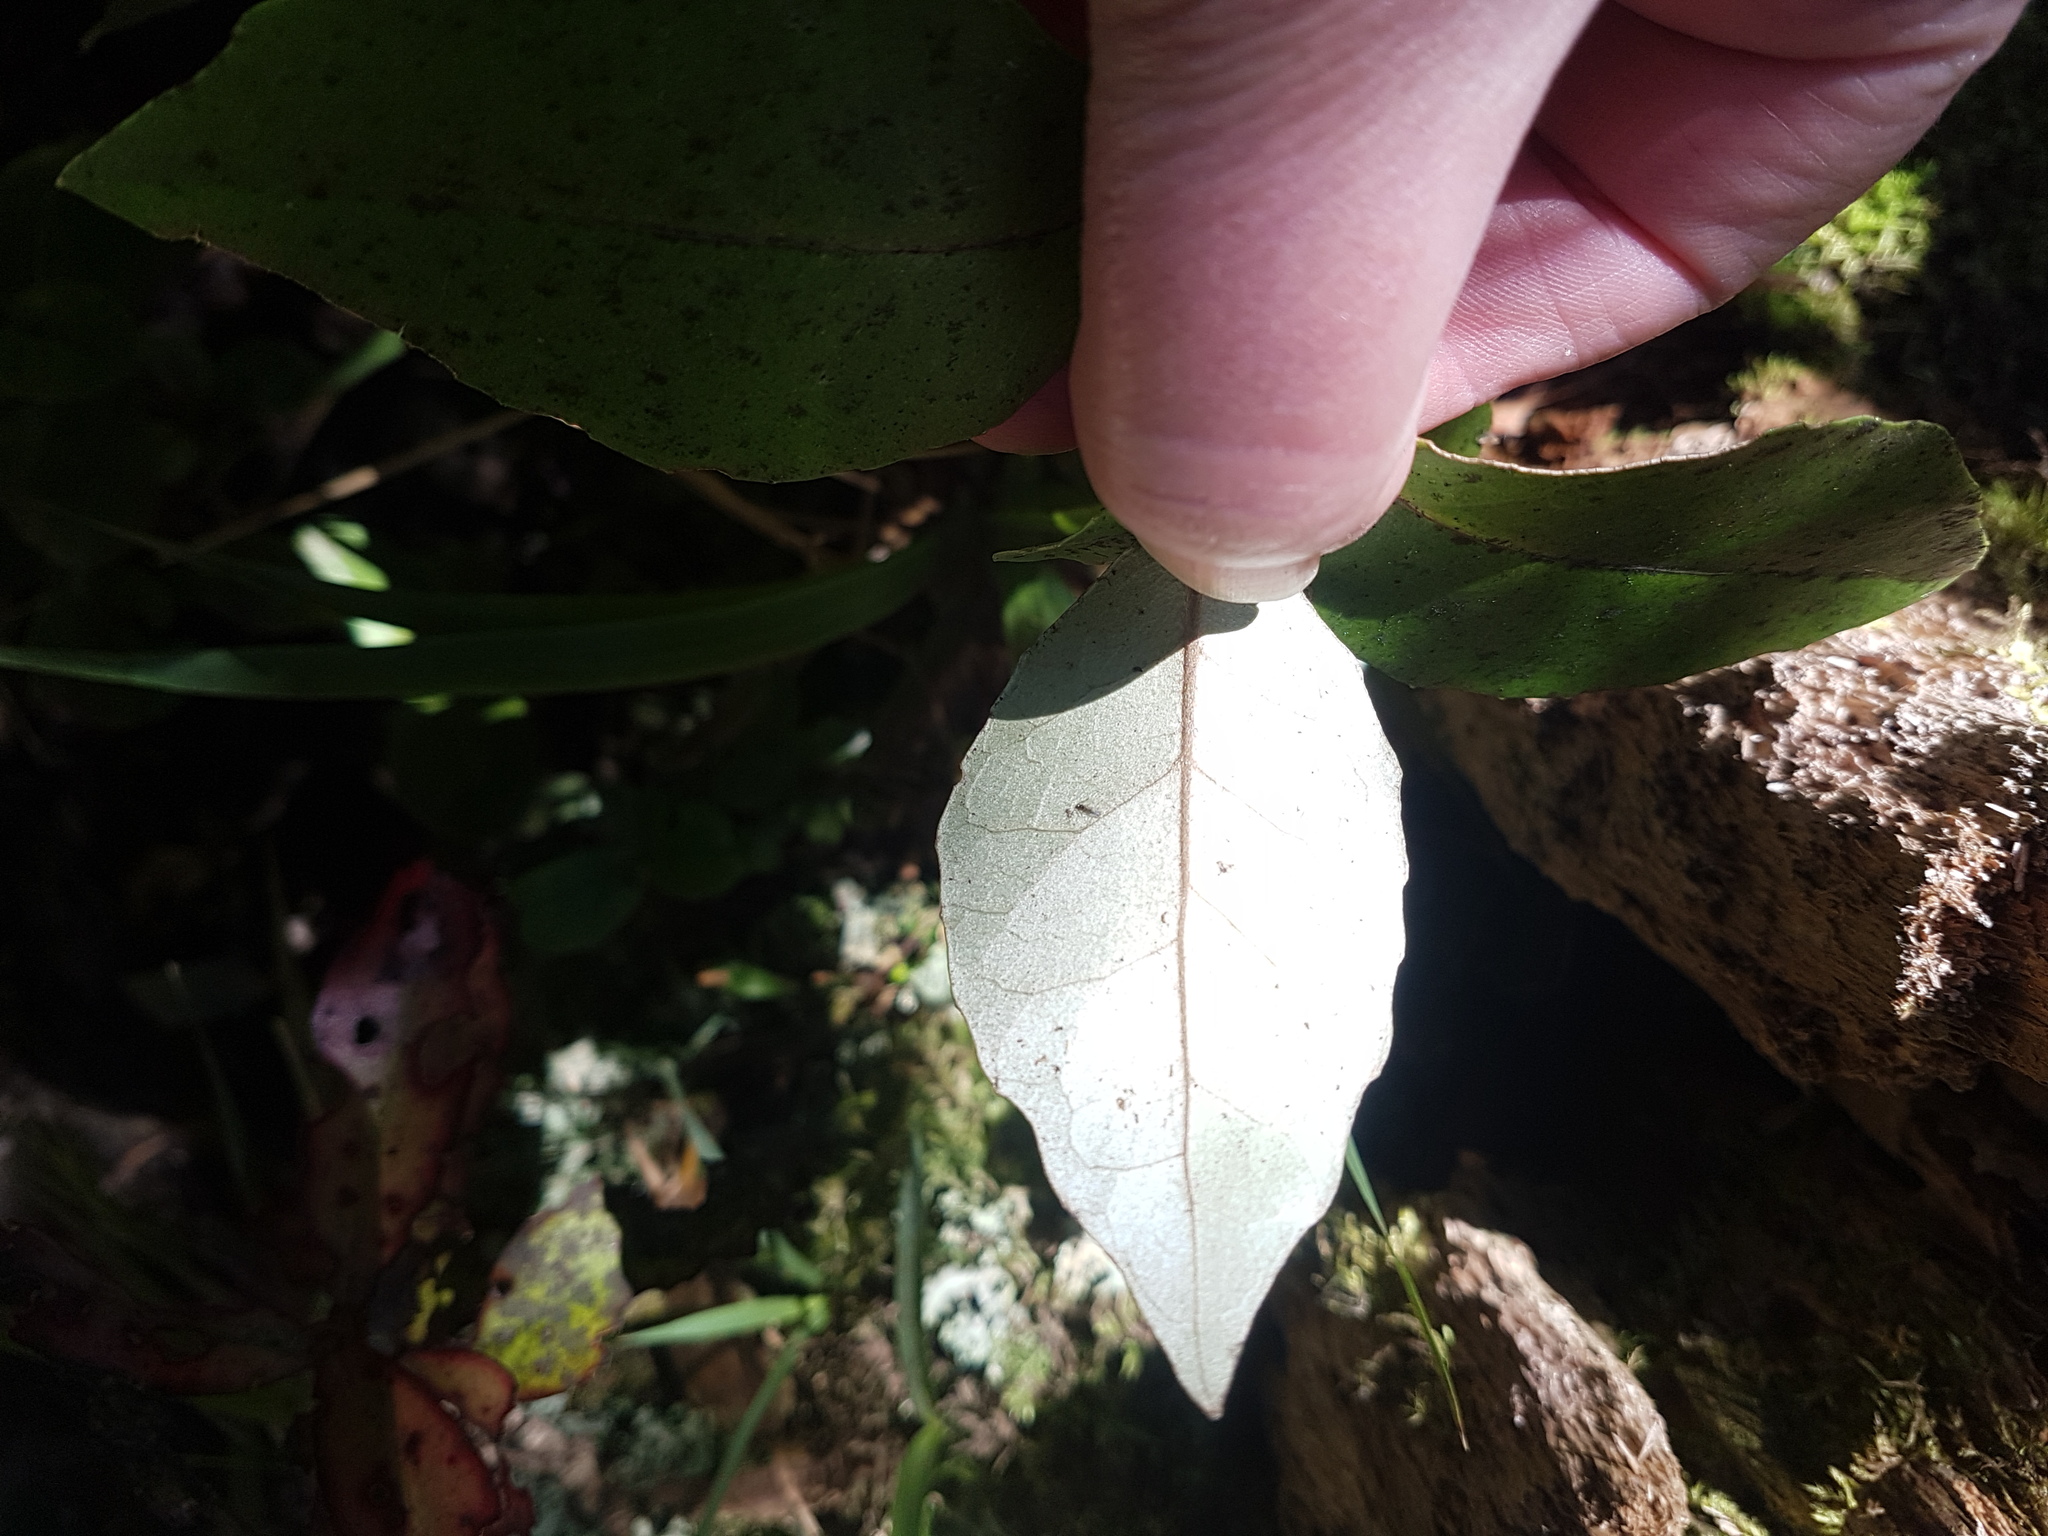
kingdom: Plantae
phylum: Tracheophyta
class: Magnoliopsida
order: Asterales
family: Asteraceae
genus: Olearia
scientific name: Olearia arborescens
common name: Glossy tree daisy
